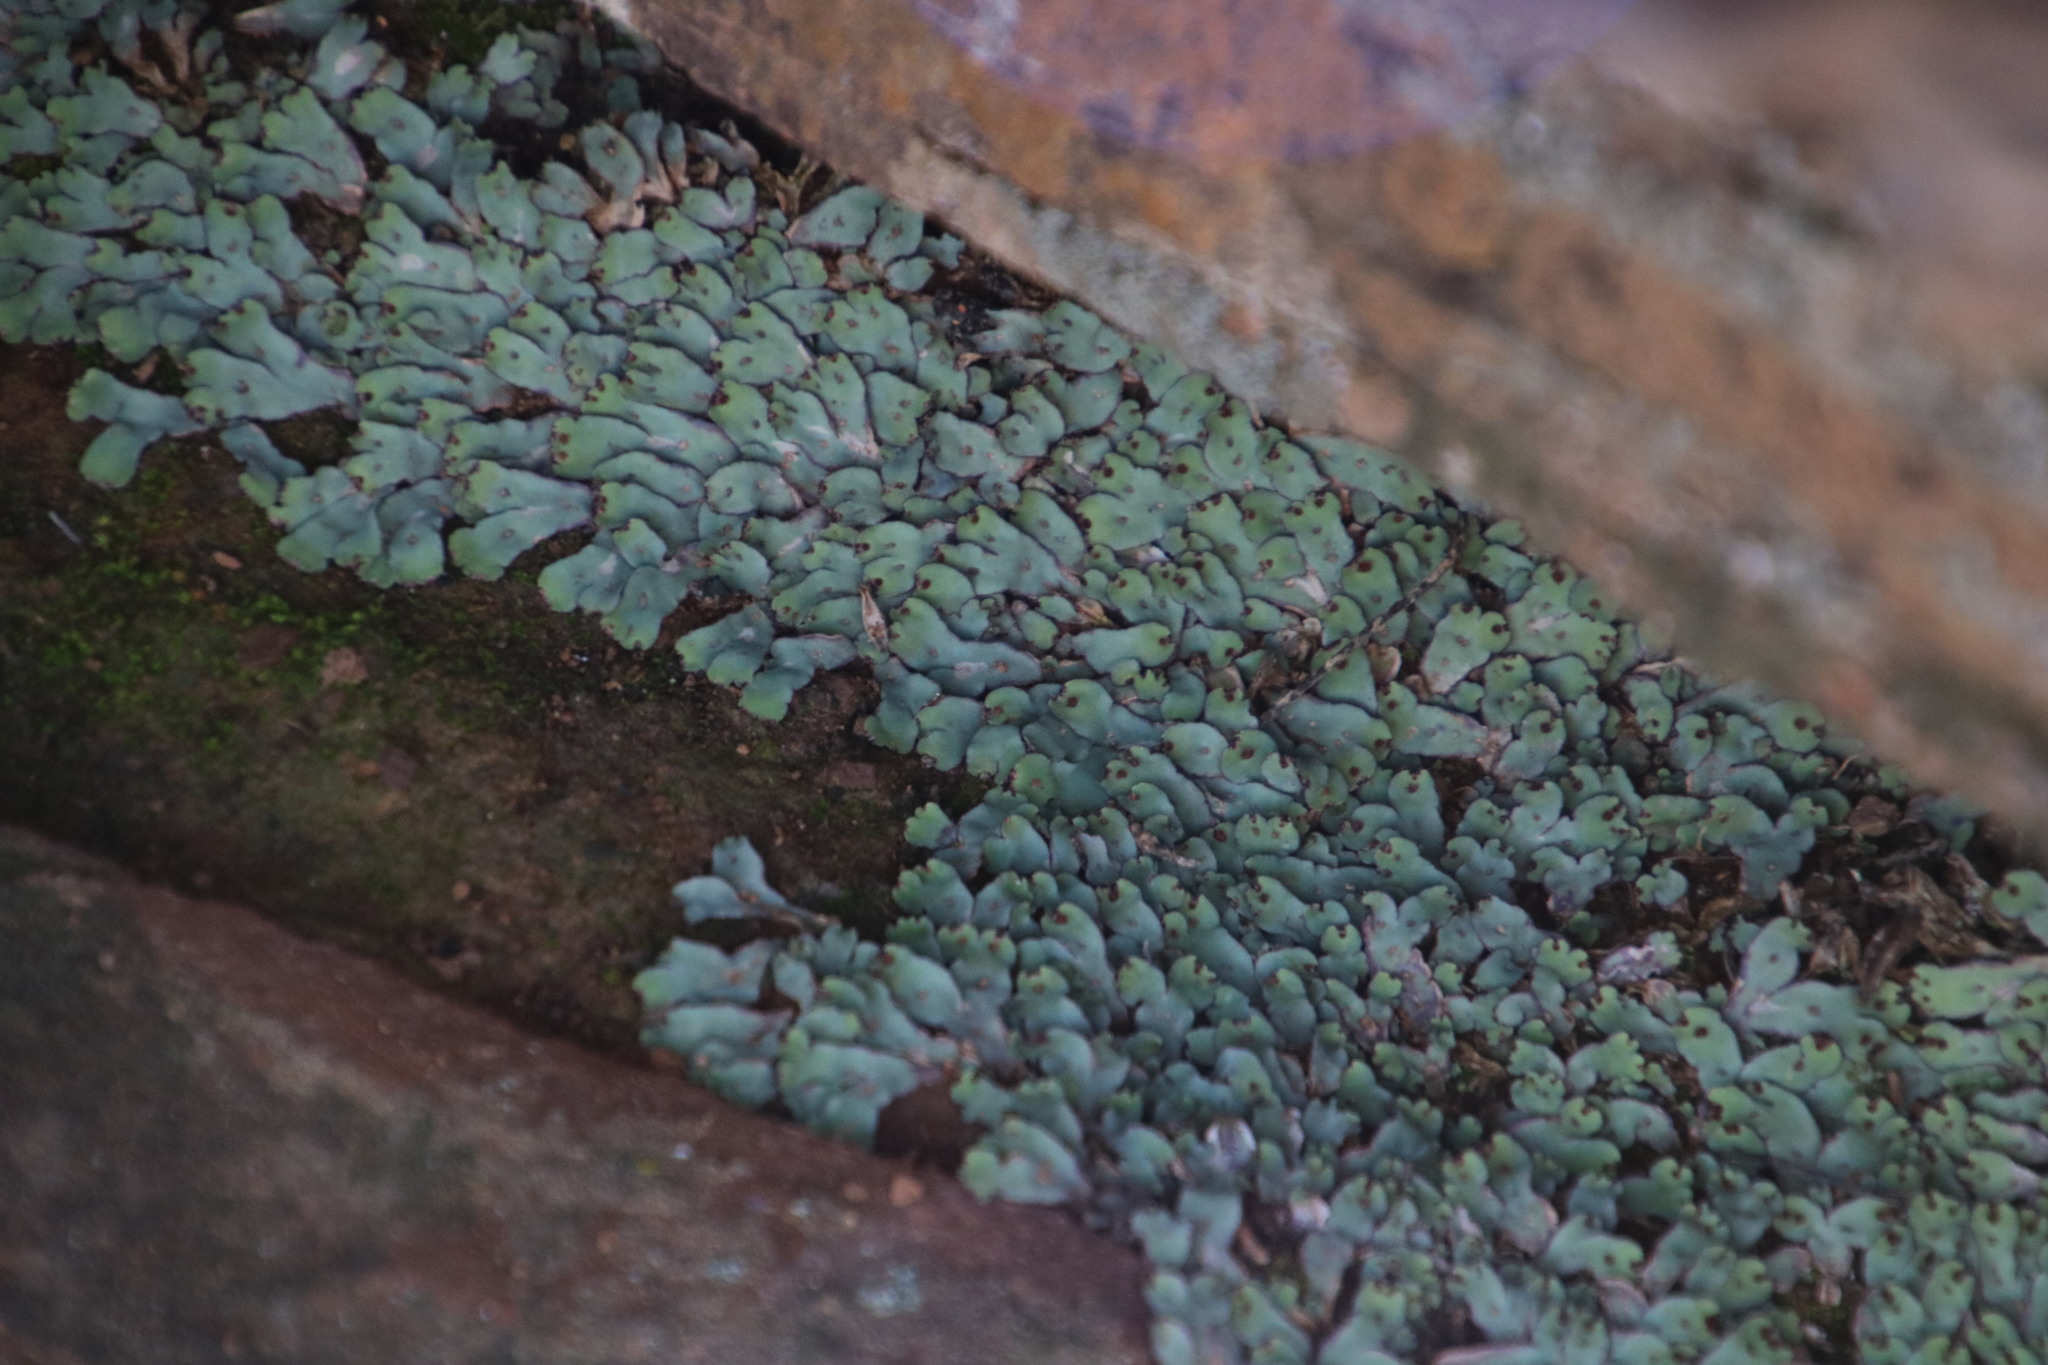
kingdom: Plantae
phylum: Marchantiophyta
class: Marchantiopsida
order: Marchantiales
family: Aytoniaceae
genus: Plagiochasma
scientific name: Plagiochasma rupestre
